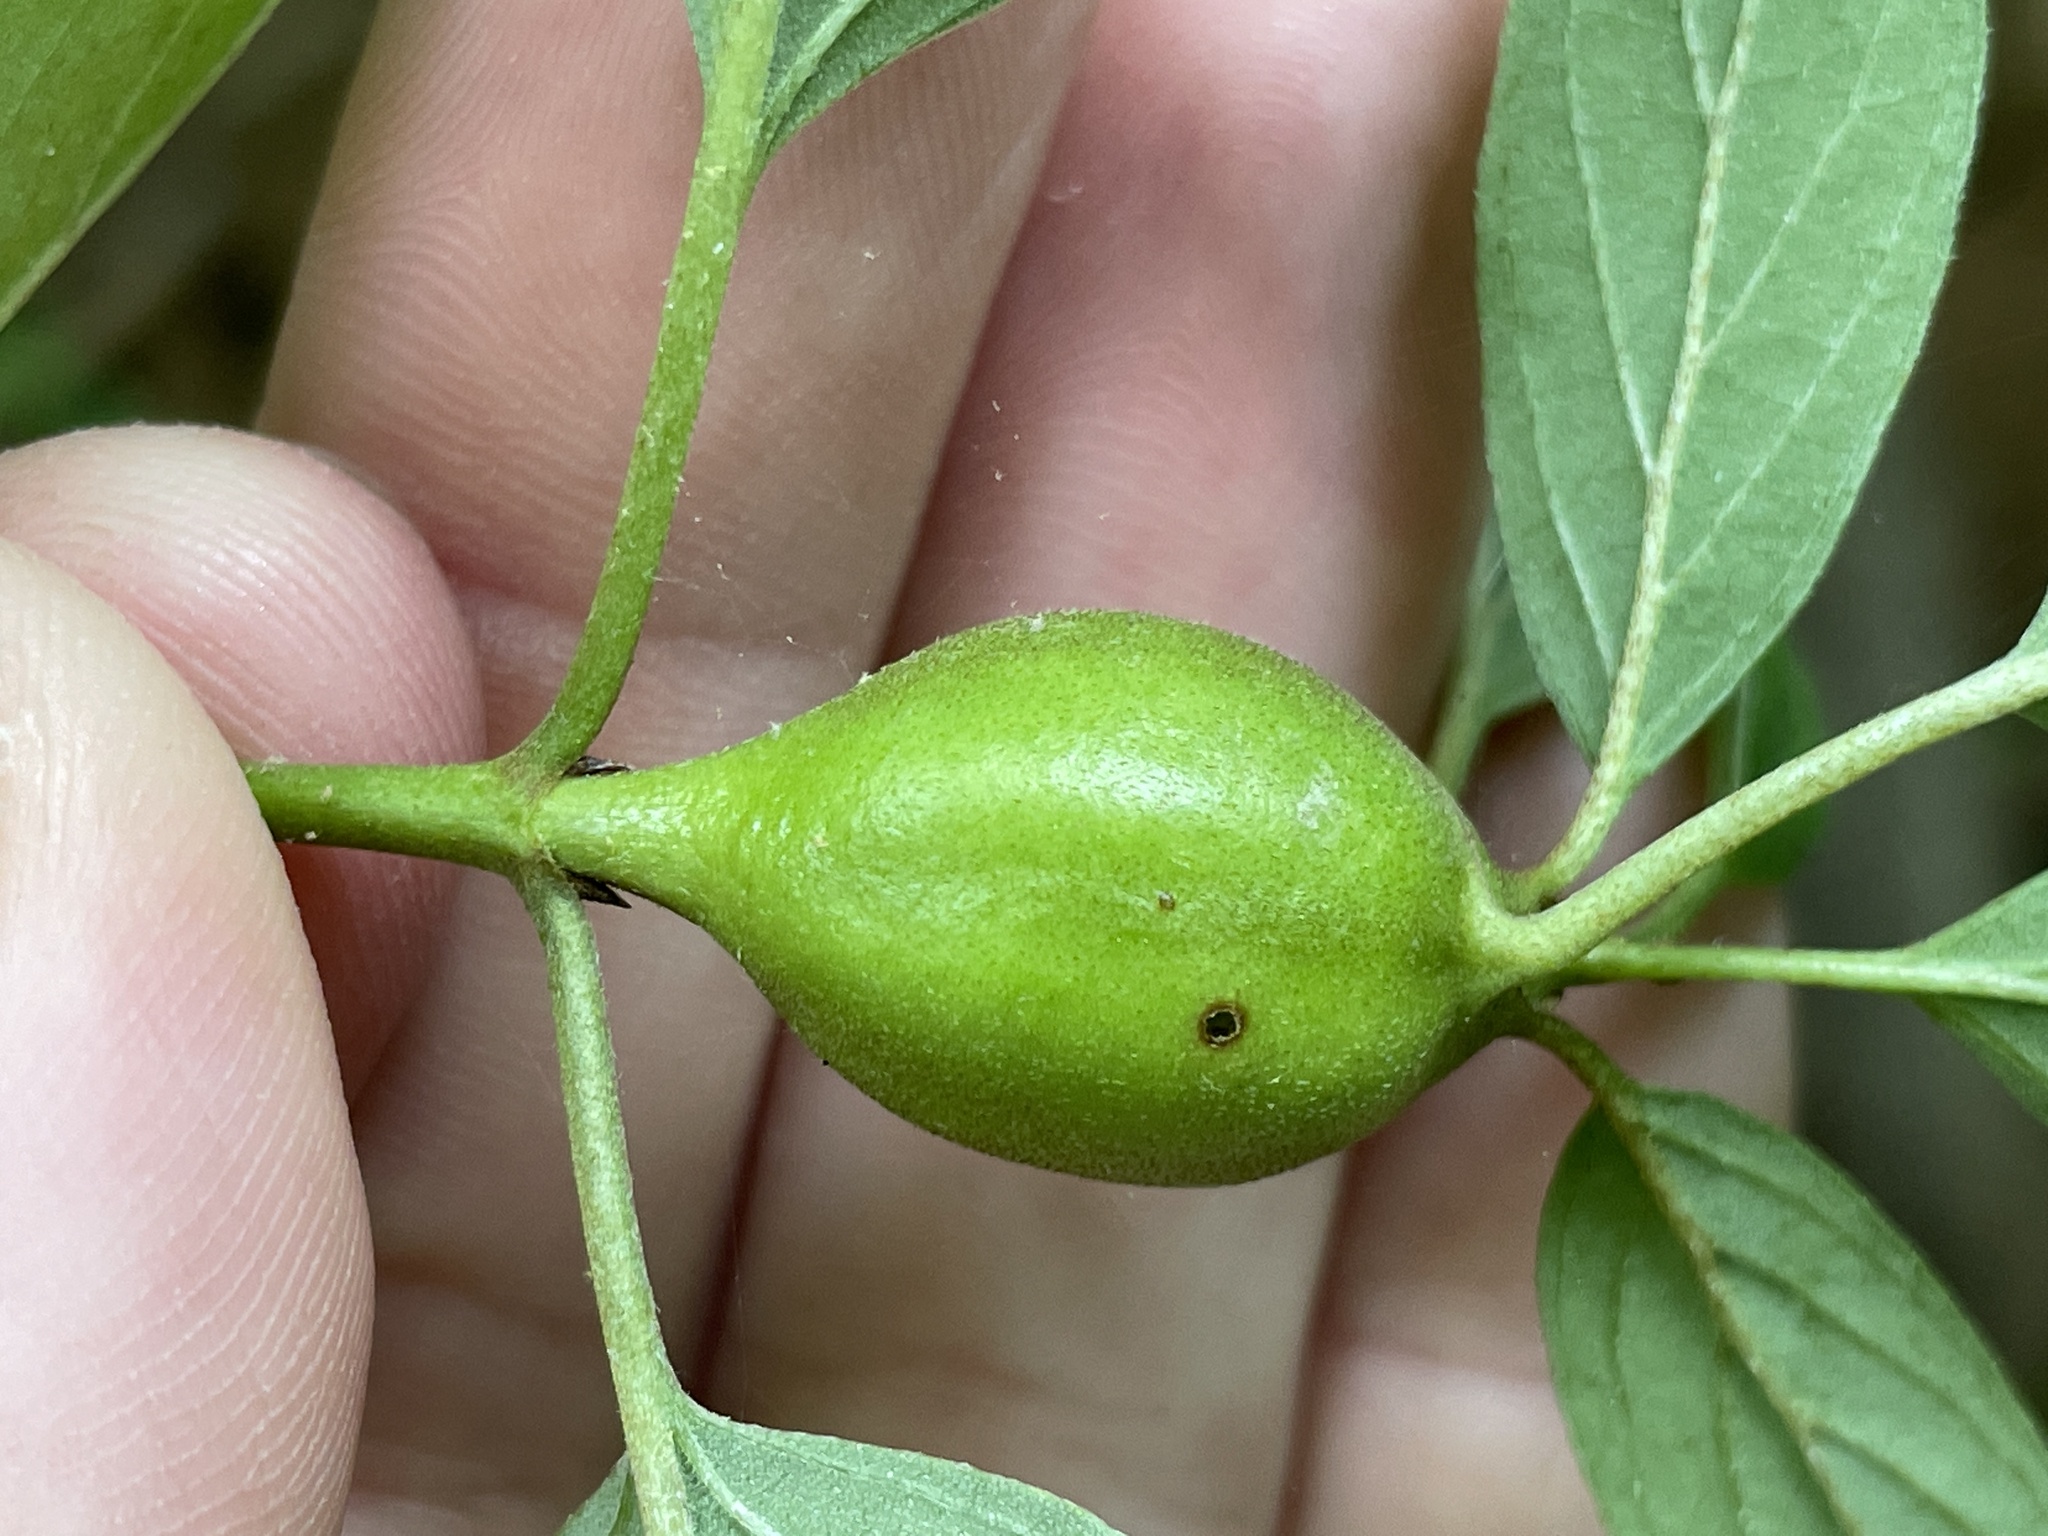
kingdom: Animalia
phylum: Arthropoda
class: Insecta
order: Diptera
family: Cecidomyiidae
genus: Resseliella
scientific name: Resseliella clavula
